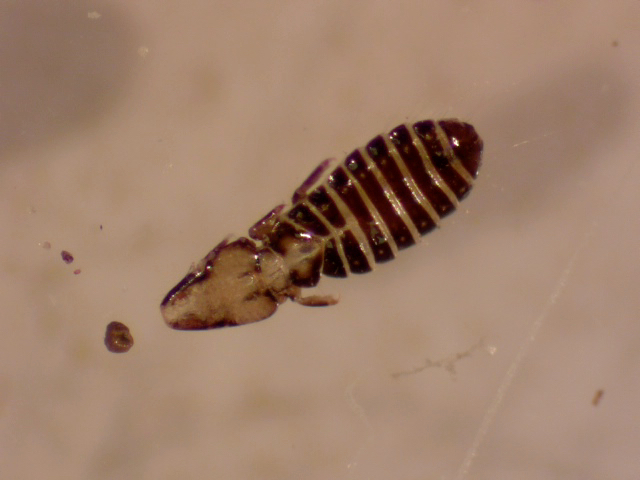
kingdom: Animalia
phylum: Arthropoda
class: Insecta
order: Psocodea
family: Philopteridae
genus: Rallicola
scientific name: Rallicola lugens
